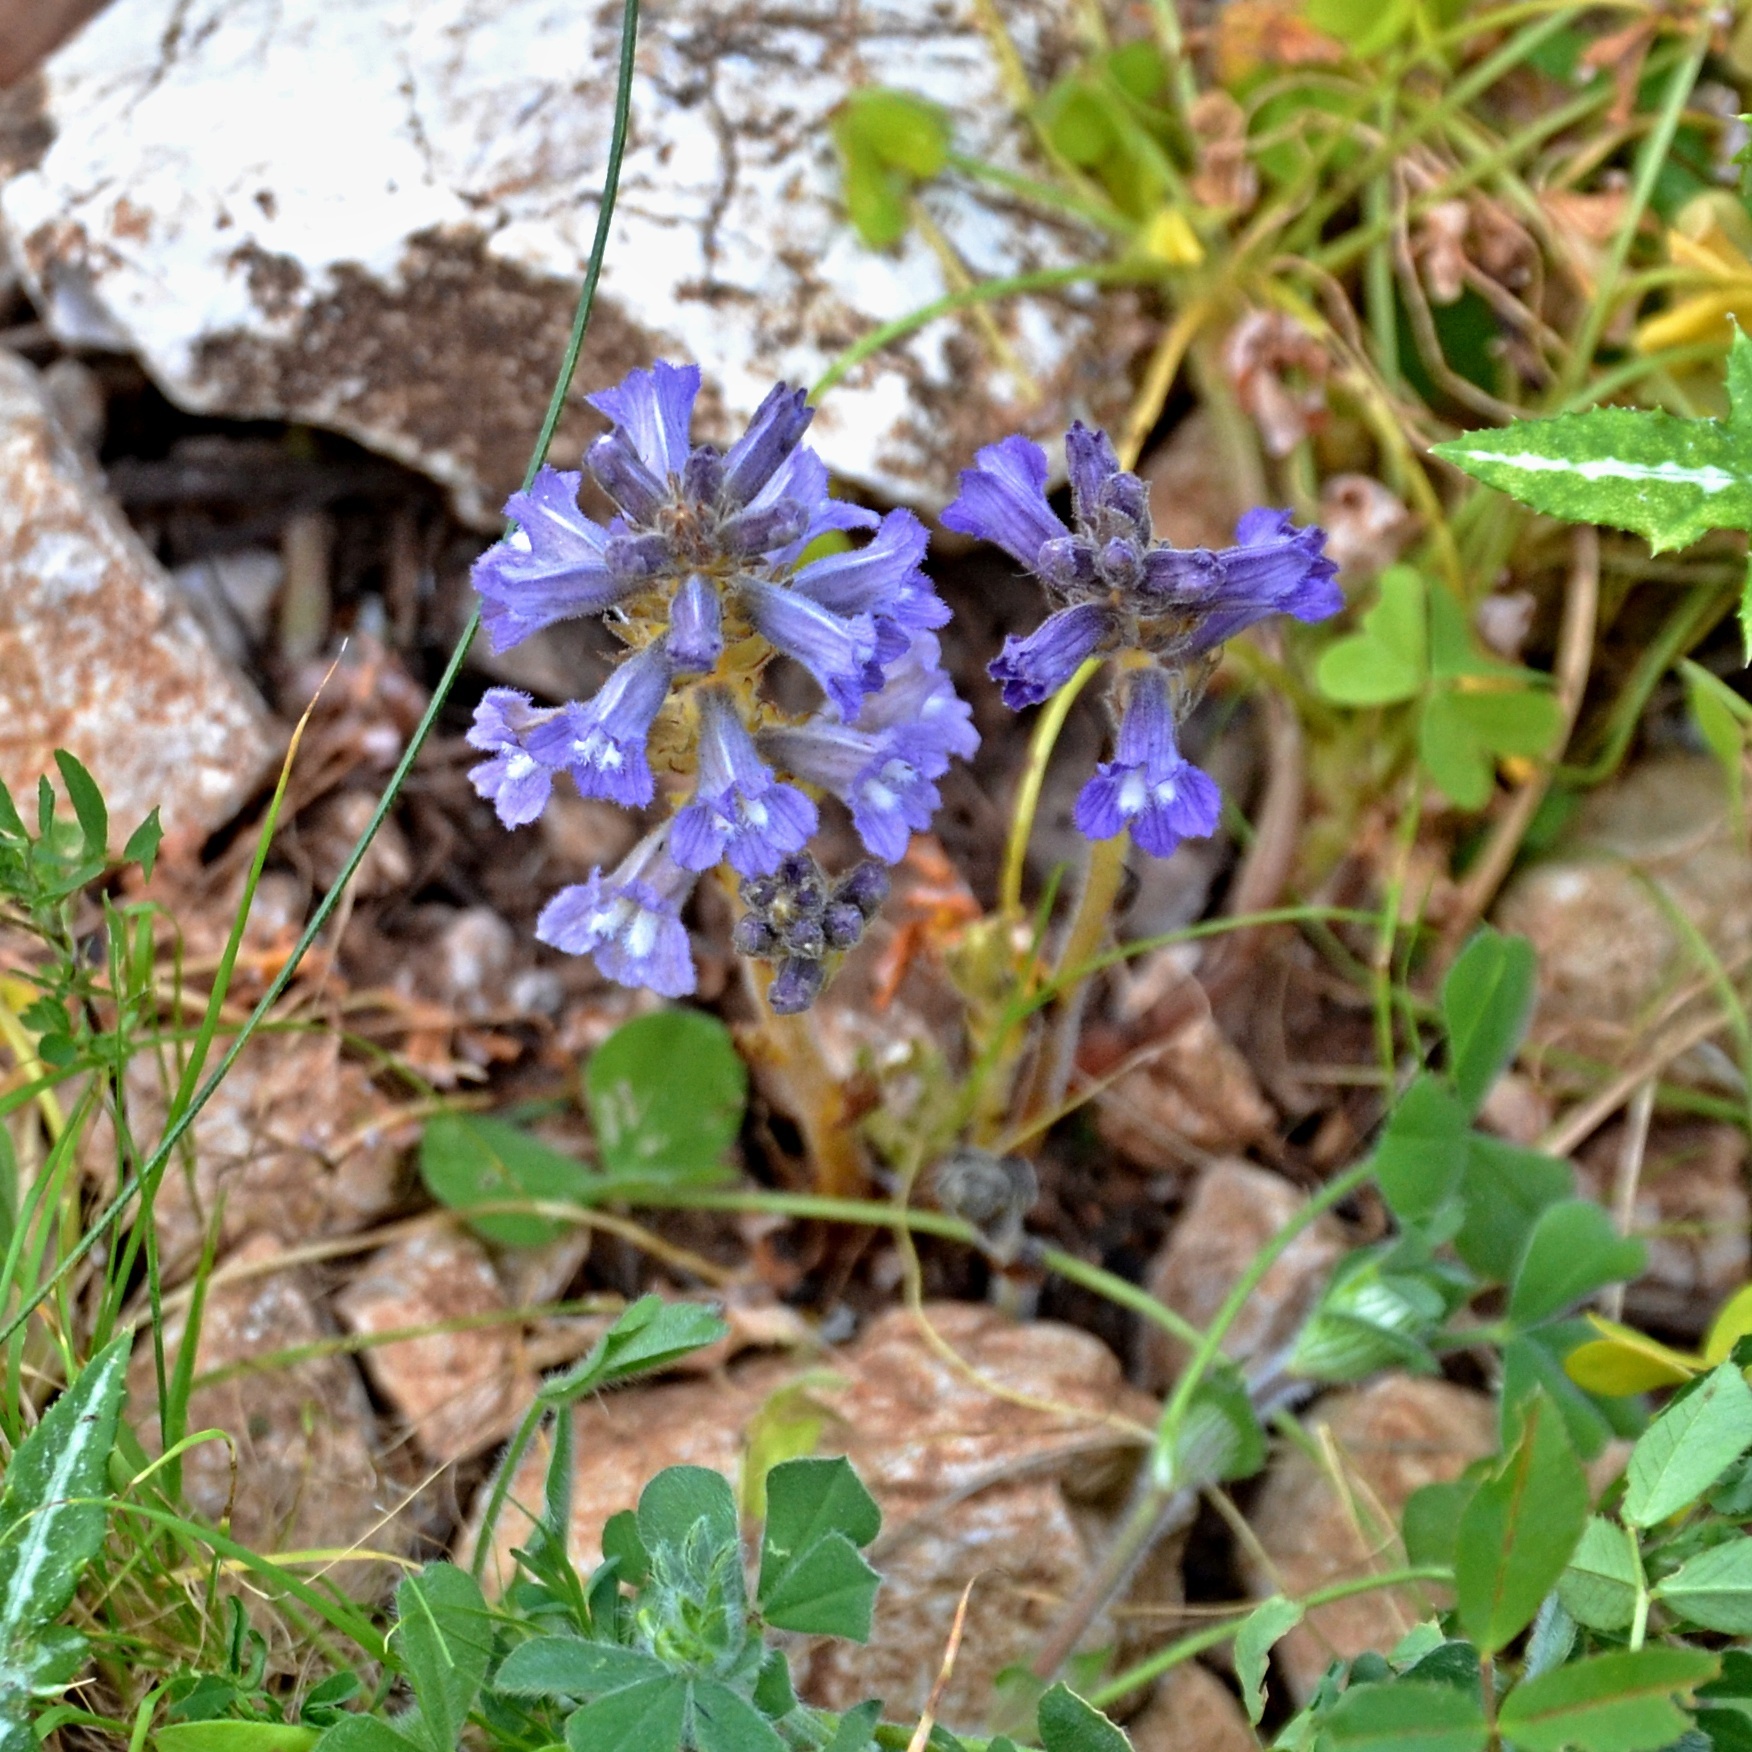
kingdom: Plantae
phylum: Tracheophyta
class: Magnoliopsida
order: Lamiales
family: Orobanchaceae
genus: Phelipanche
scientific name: Phelipanche mutelii
